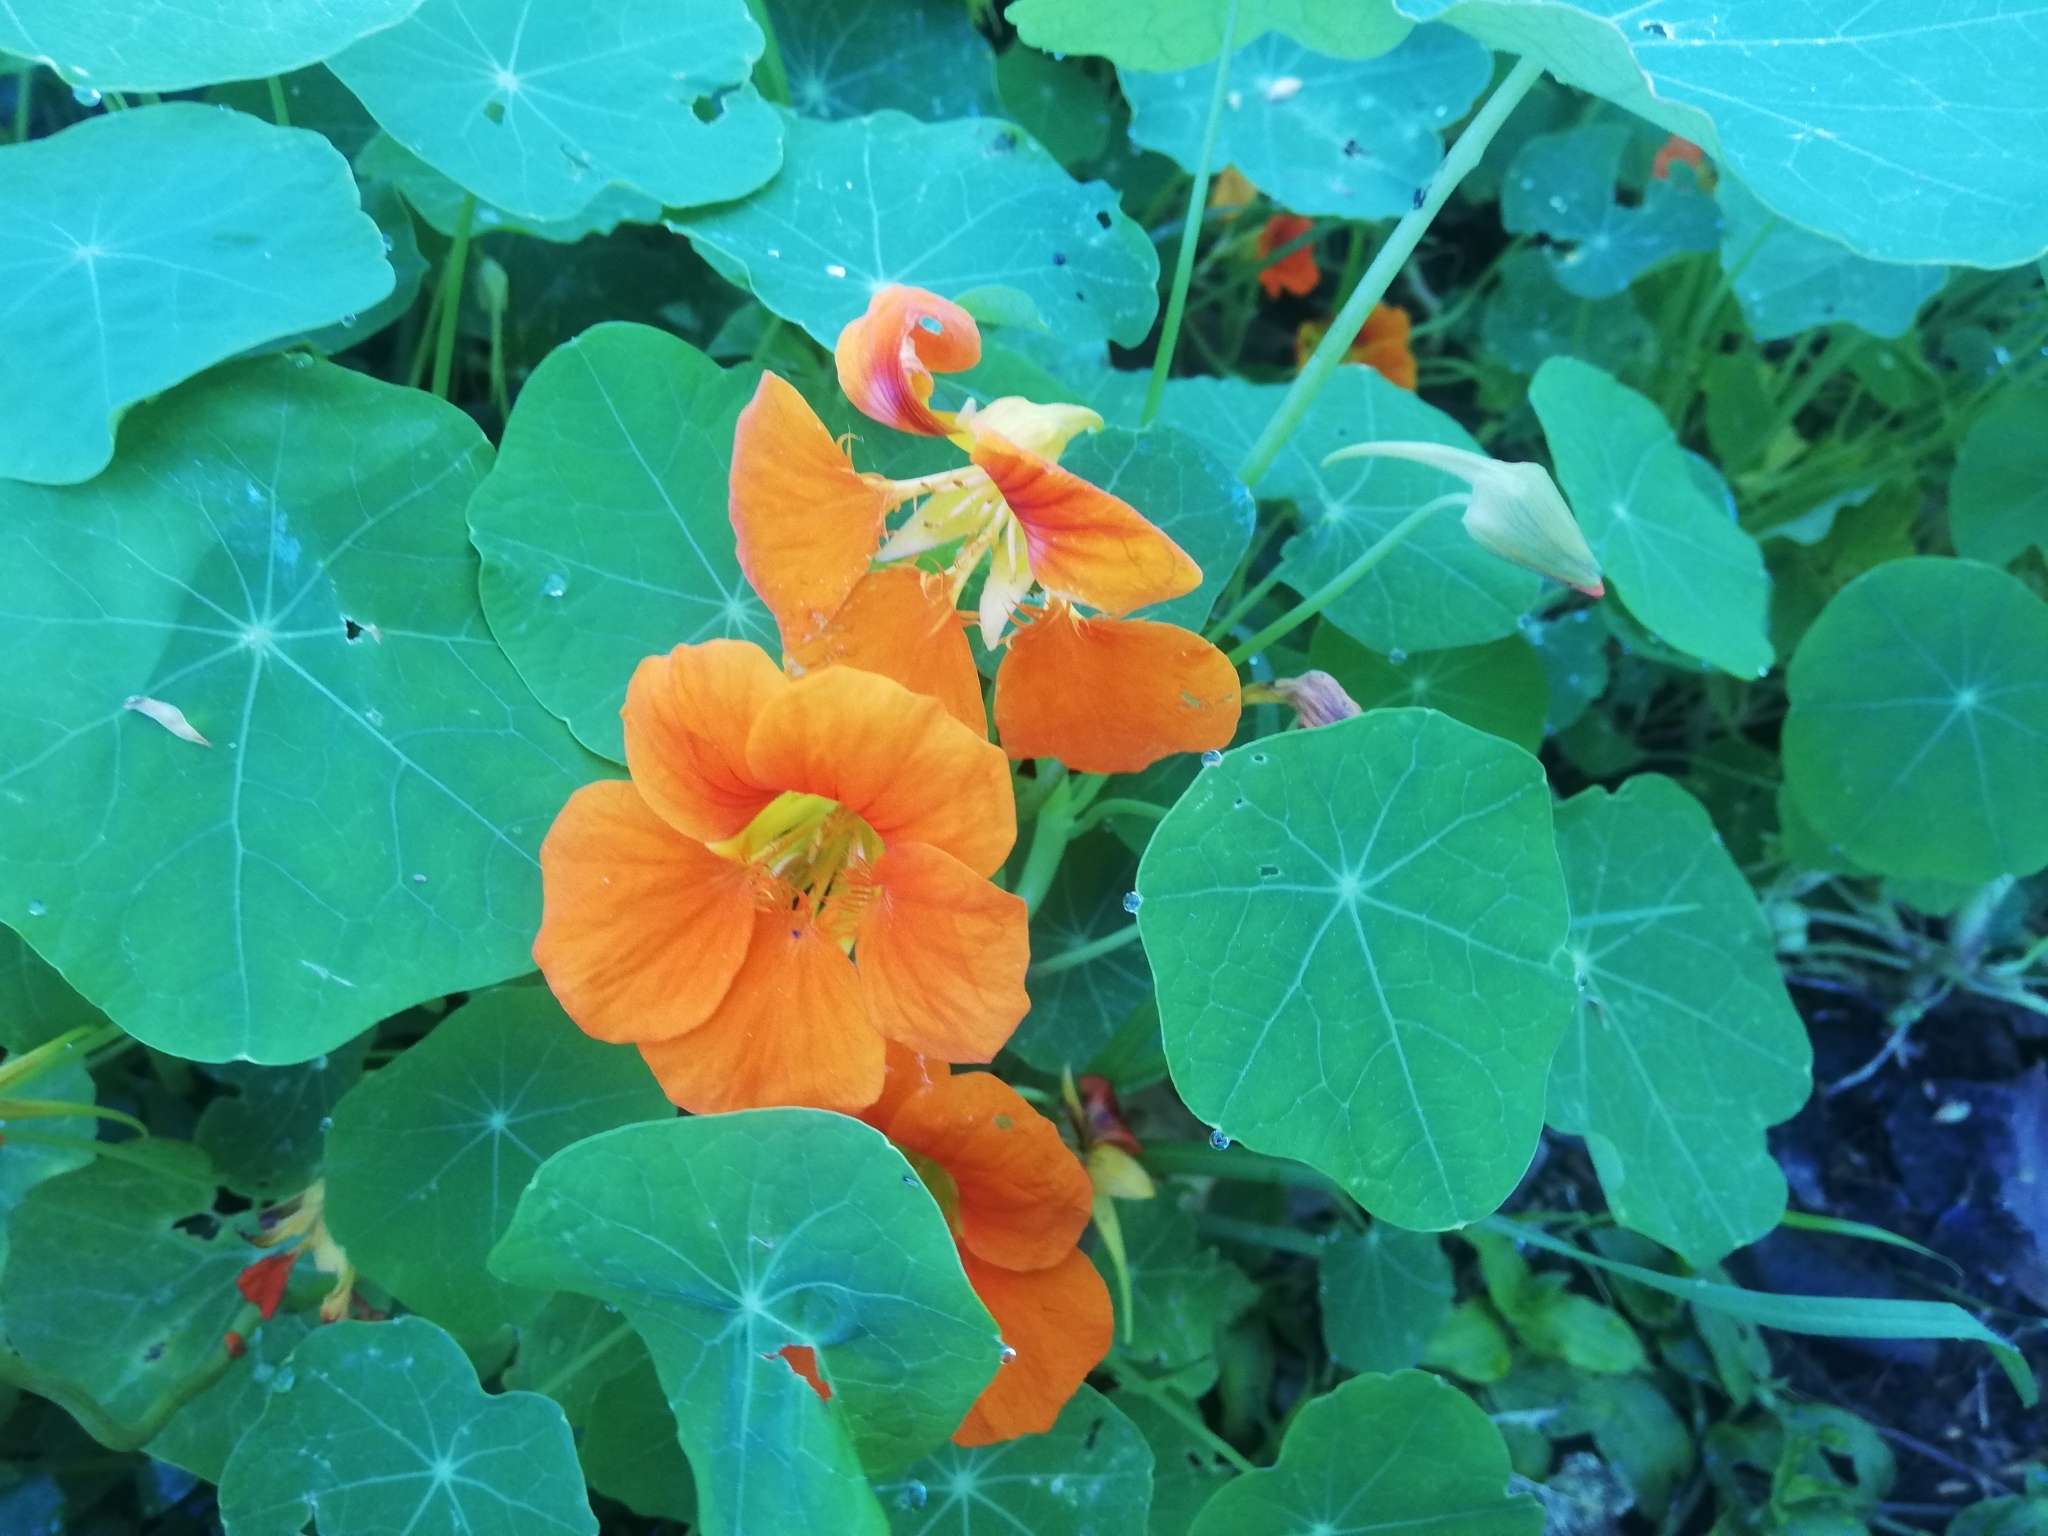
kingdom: Plantae
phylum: Tracheophyta
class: Magnoliopsida
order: Brassicales
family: Tropaeolaceae
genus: Tropaeolum
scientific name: Tropaeolum majus
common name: Nasturtium
